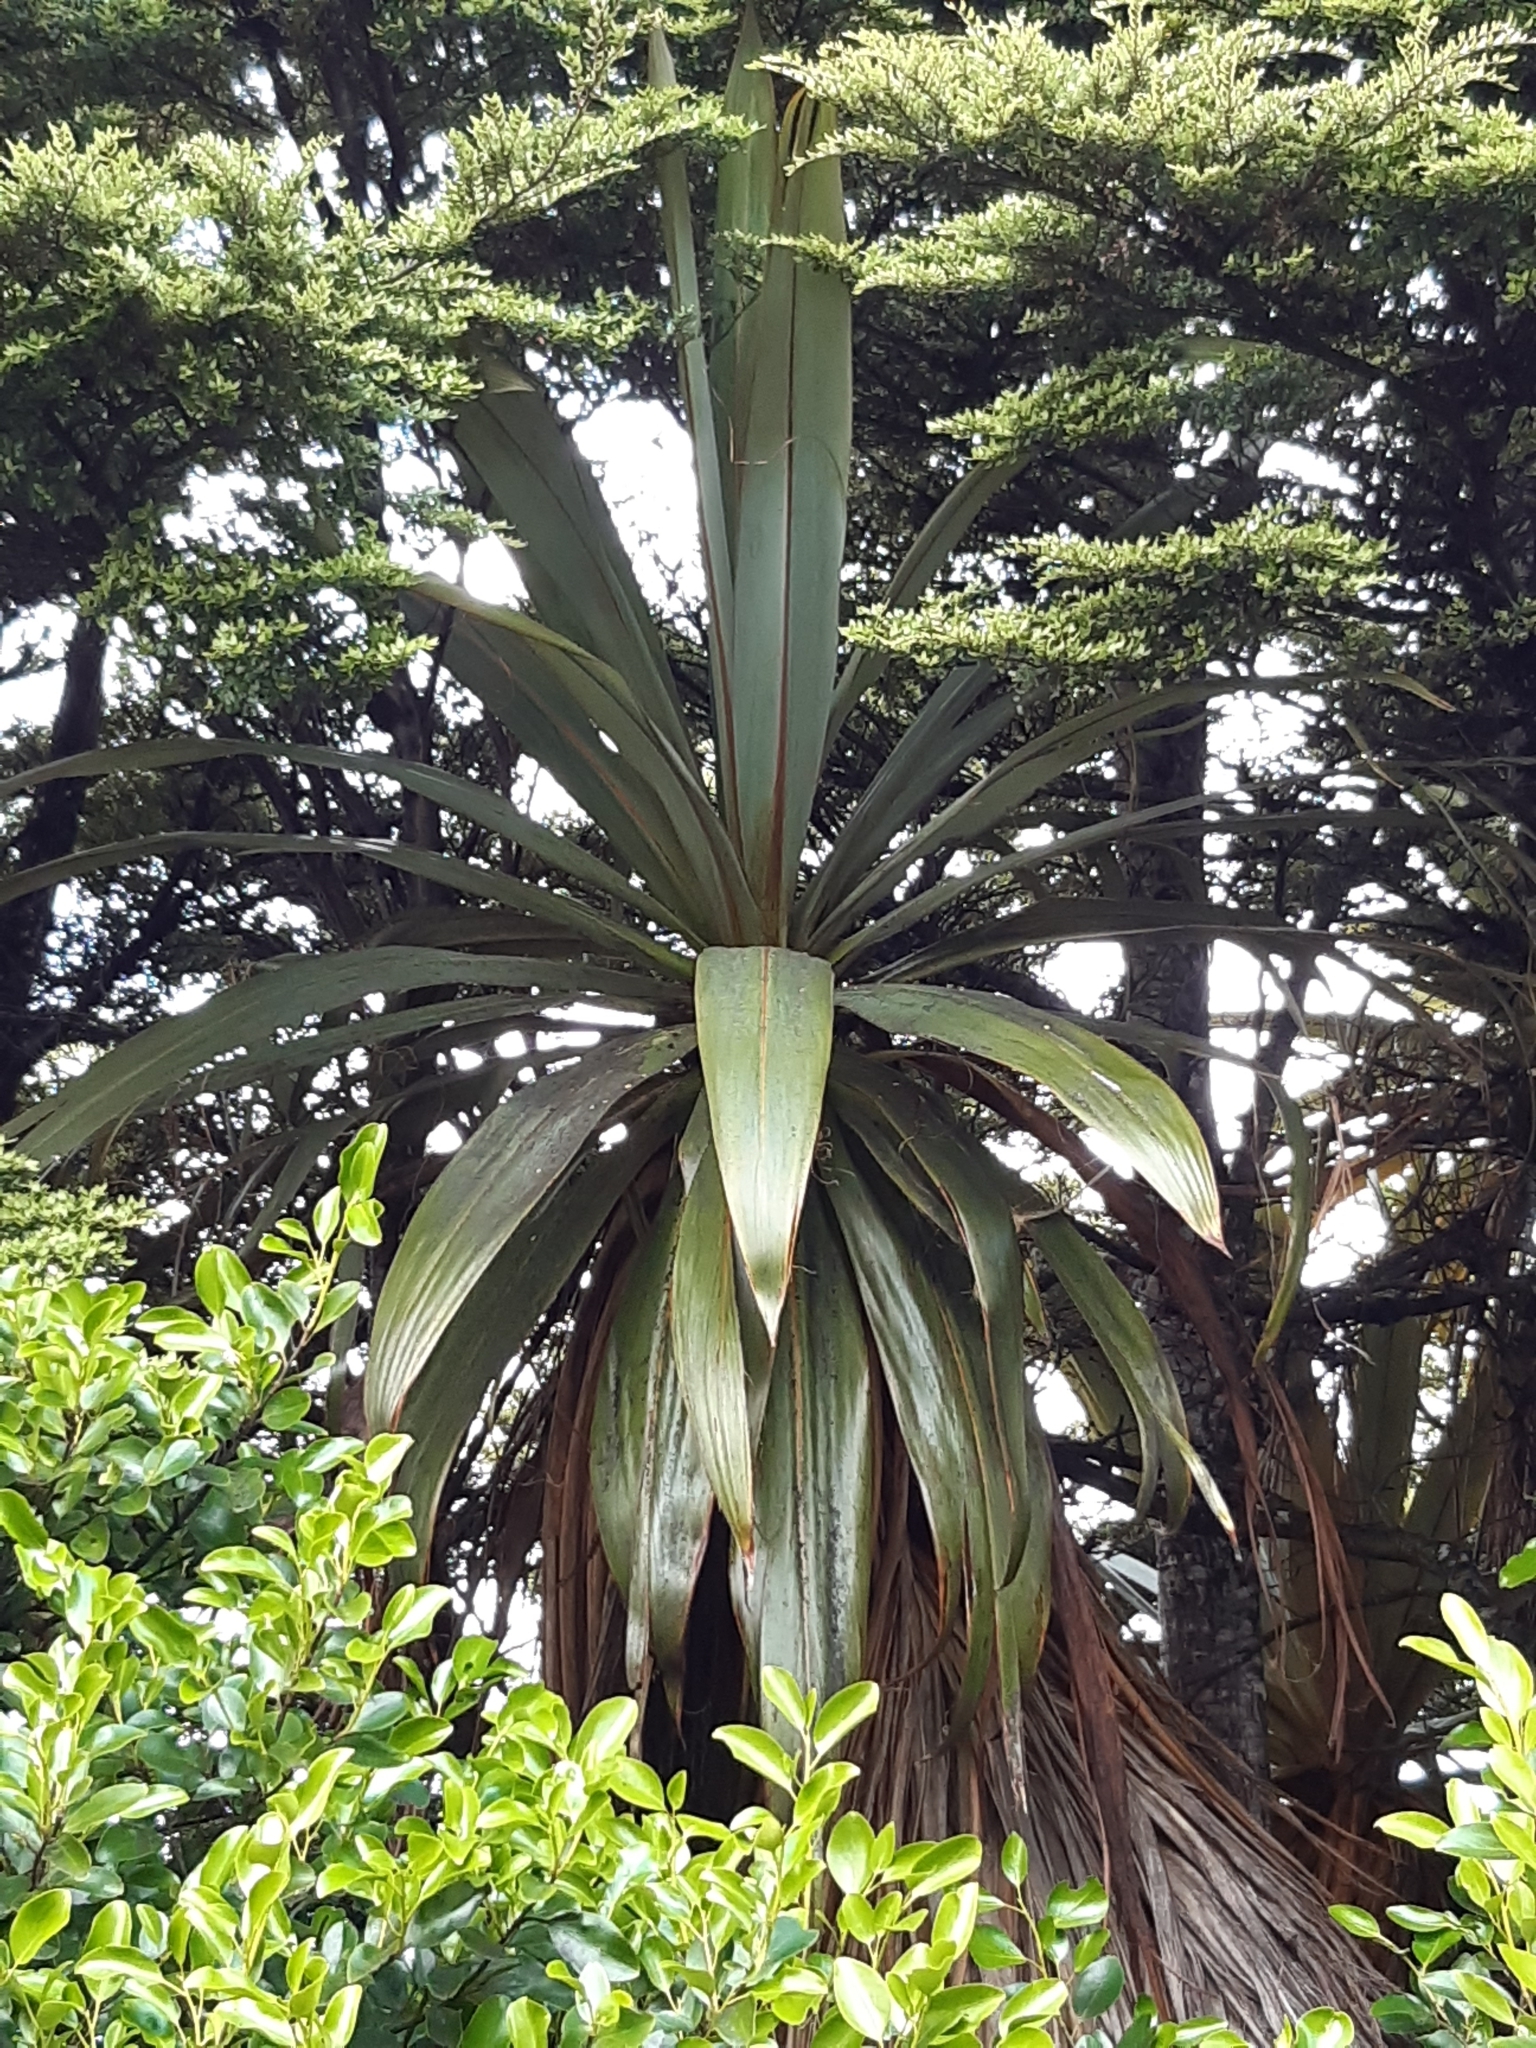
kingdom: Plantae
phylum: Tracheophyta
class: Liliopsida
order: Asparagales
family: Asparagaceae
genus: Cordyline
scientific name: Cordyline indivisa
